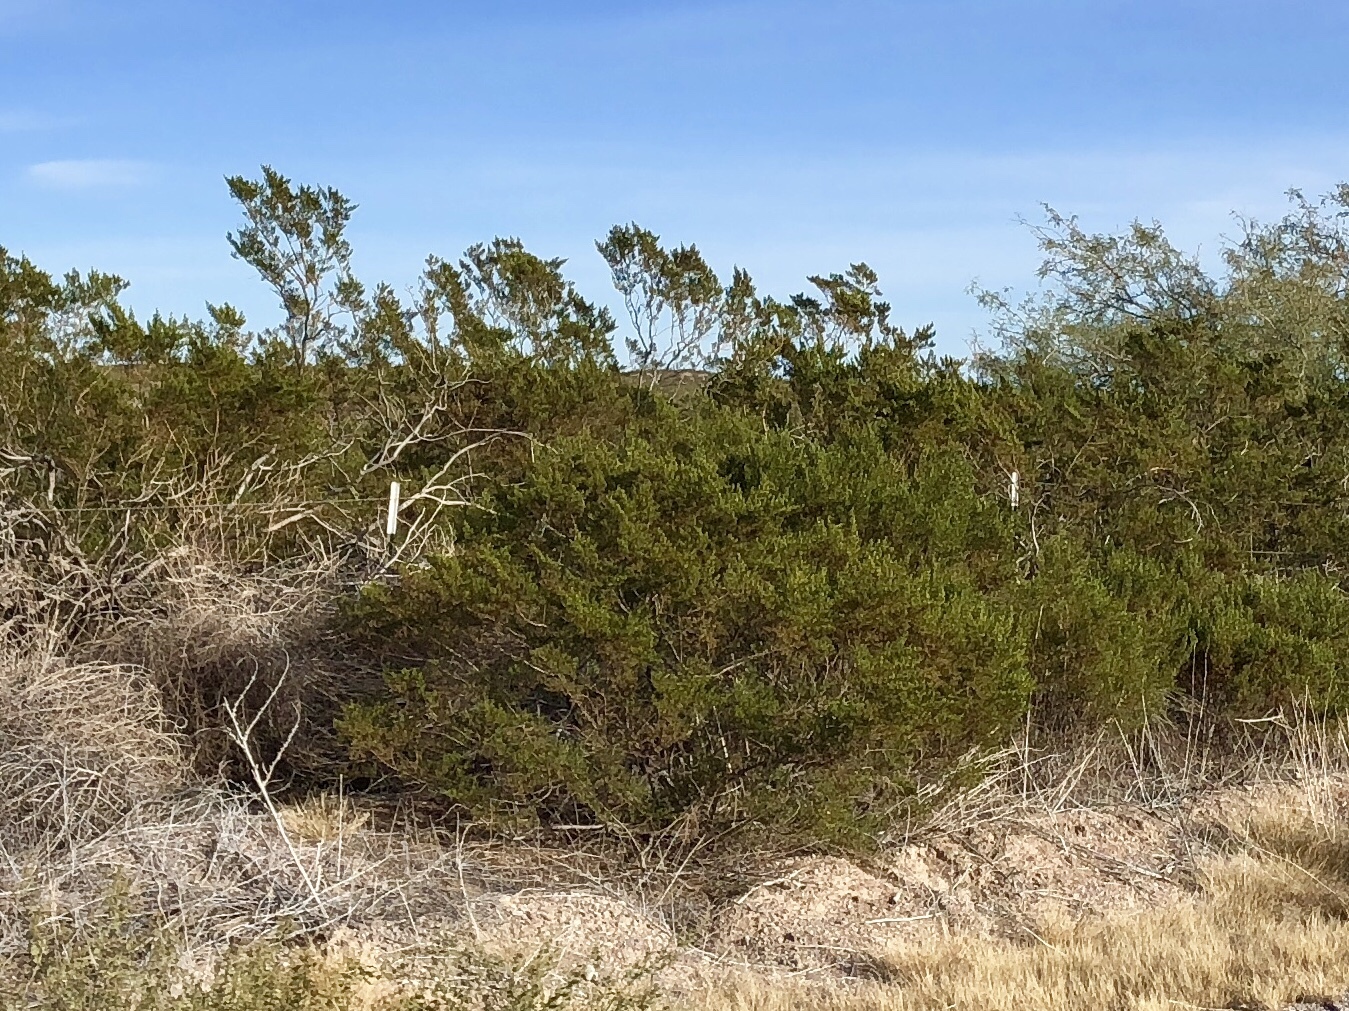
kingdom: Plantae
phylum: Tracheophyta
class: Magnoliopsida
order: Zygophyllales
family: Zygophyllaceae
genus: Larrea
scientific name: Larrea tridentata
